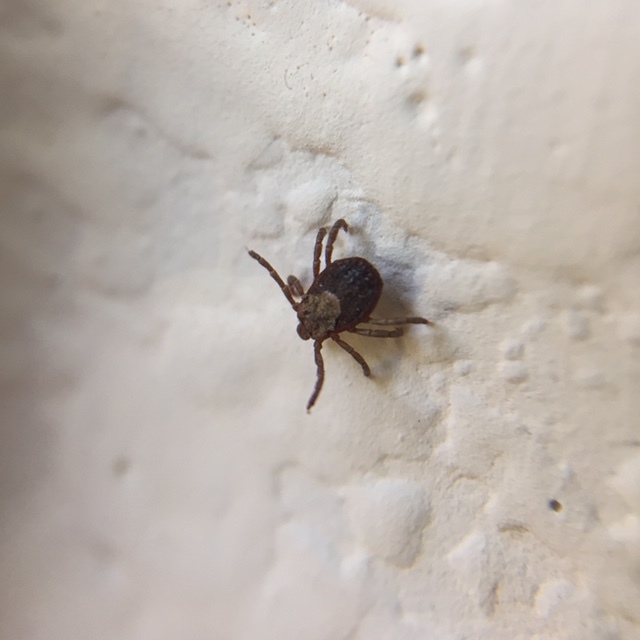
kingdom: Animalia
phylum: Arthropoda
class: Arachnida
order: Ixodida
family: Ixodidae
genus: Dermacentor
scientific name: Dermacentor occidentalis
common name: Net tick
